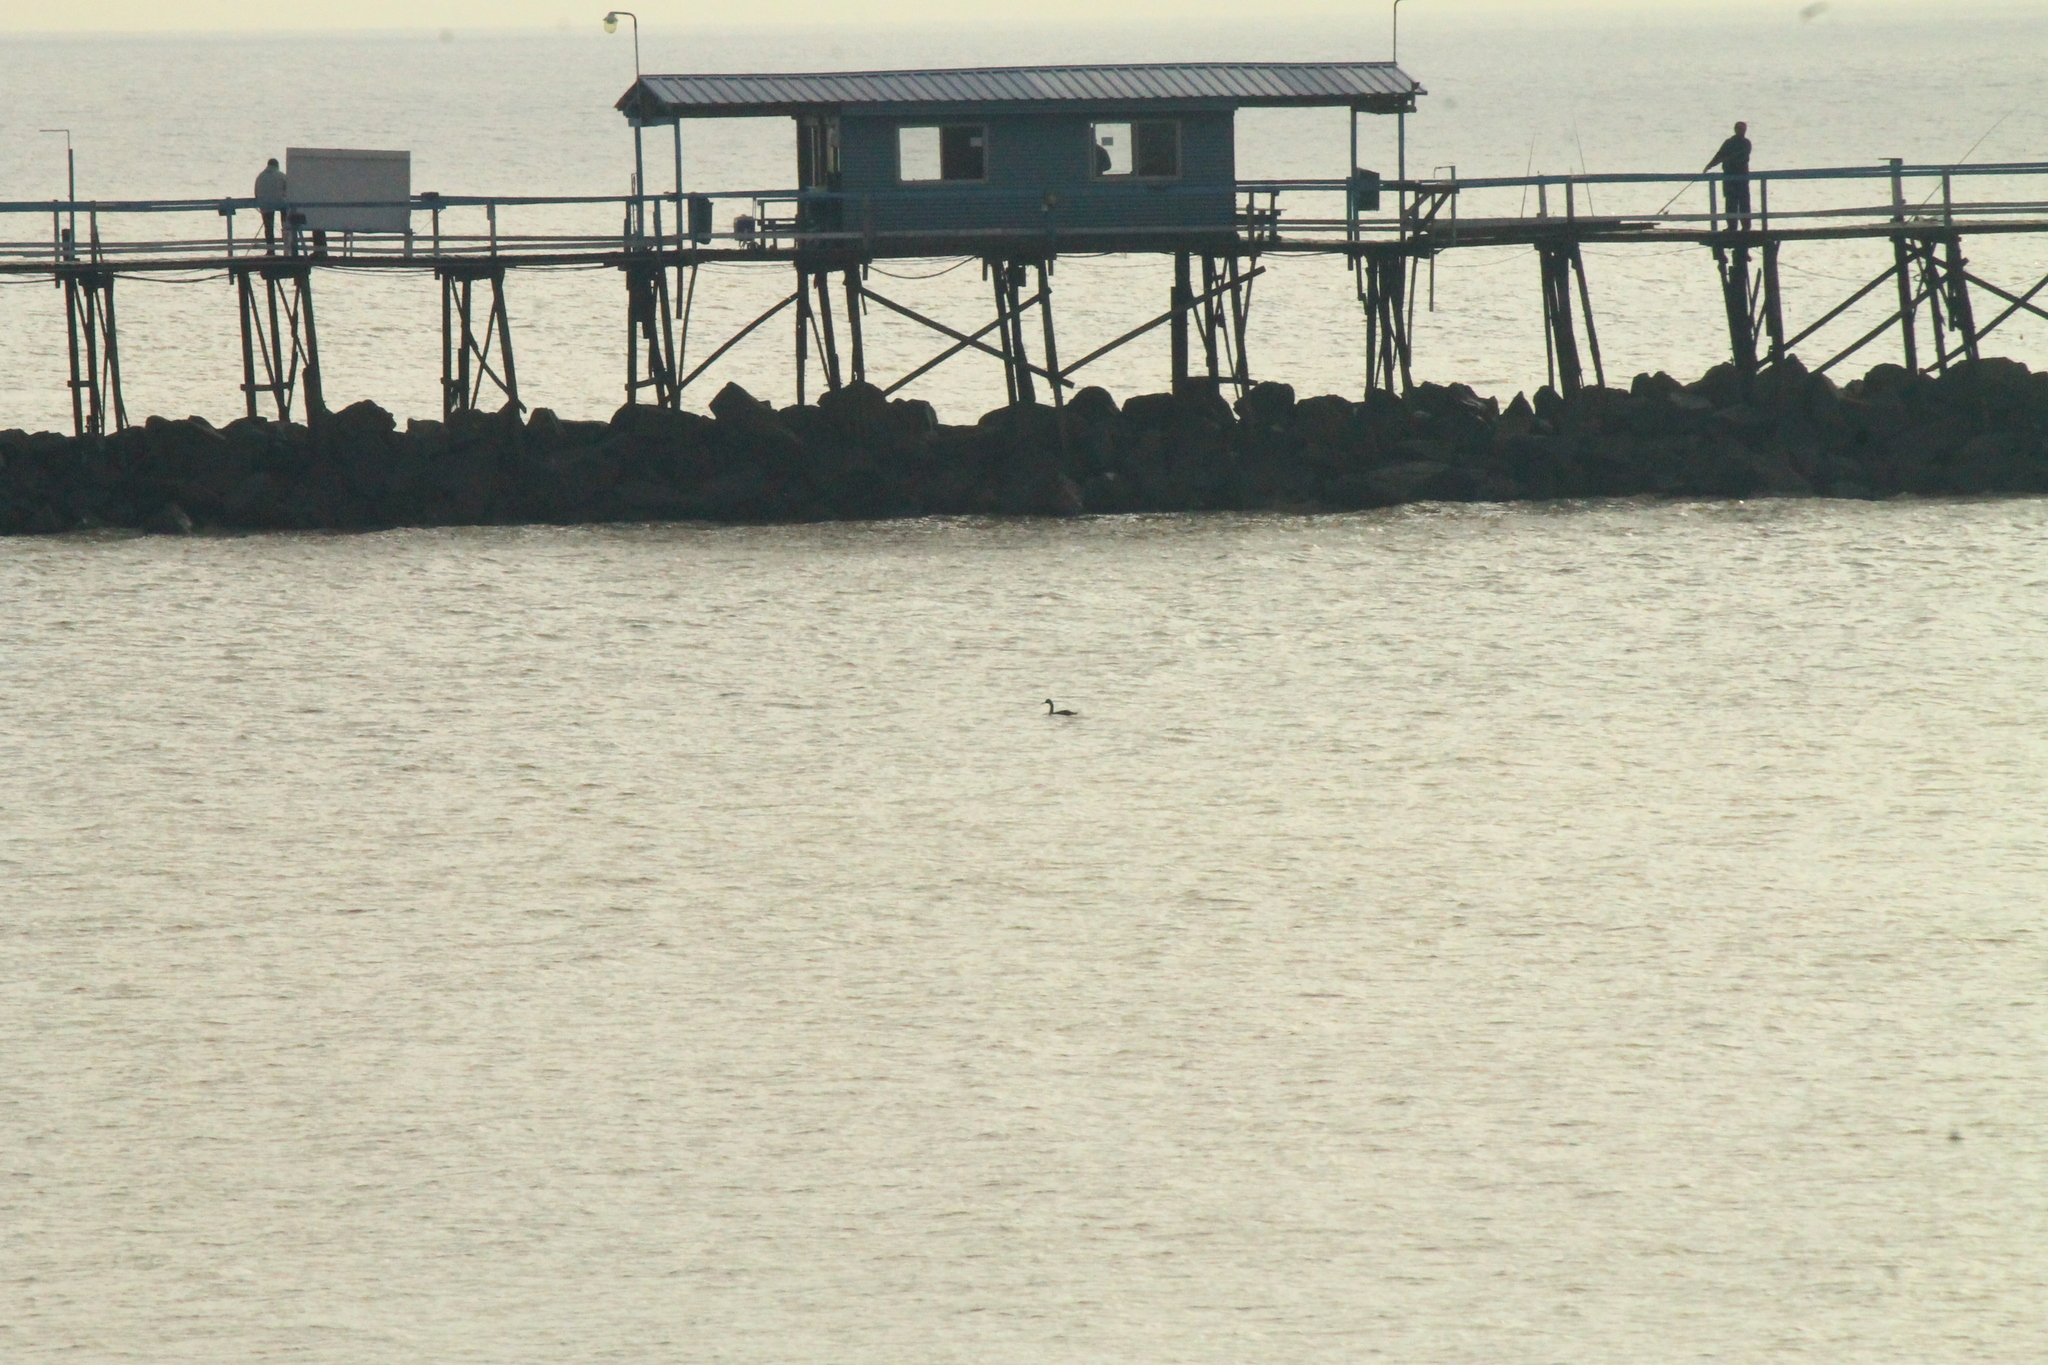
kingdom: Animalia
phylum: Chordata
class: Aves
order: Podicipediformes
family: Podicipedidae
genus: Podiceps
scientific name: Podiceps major
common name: Great grebe
